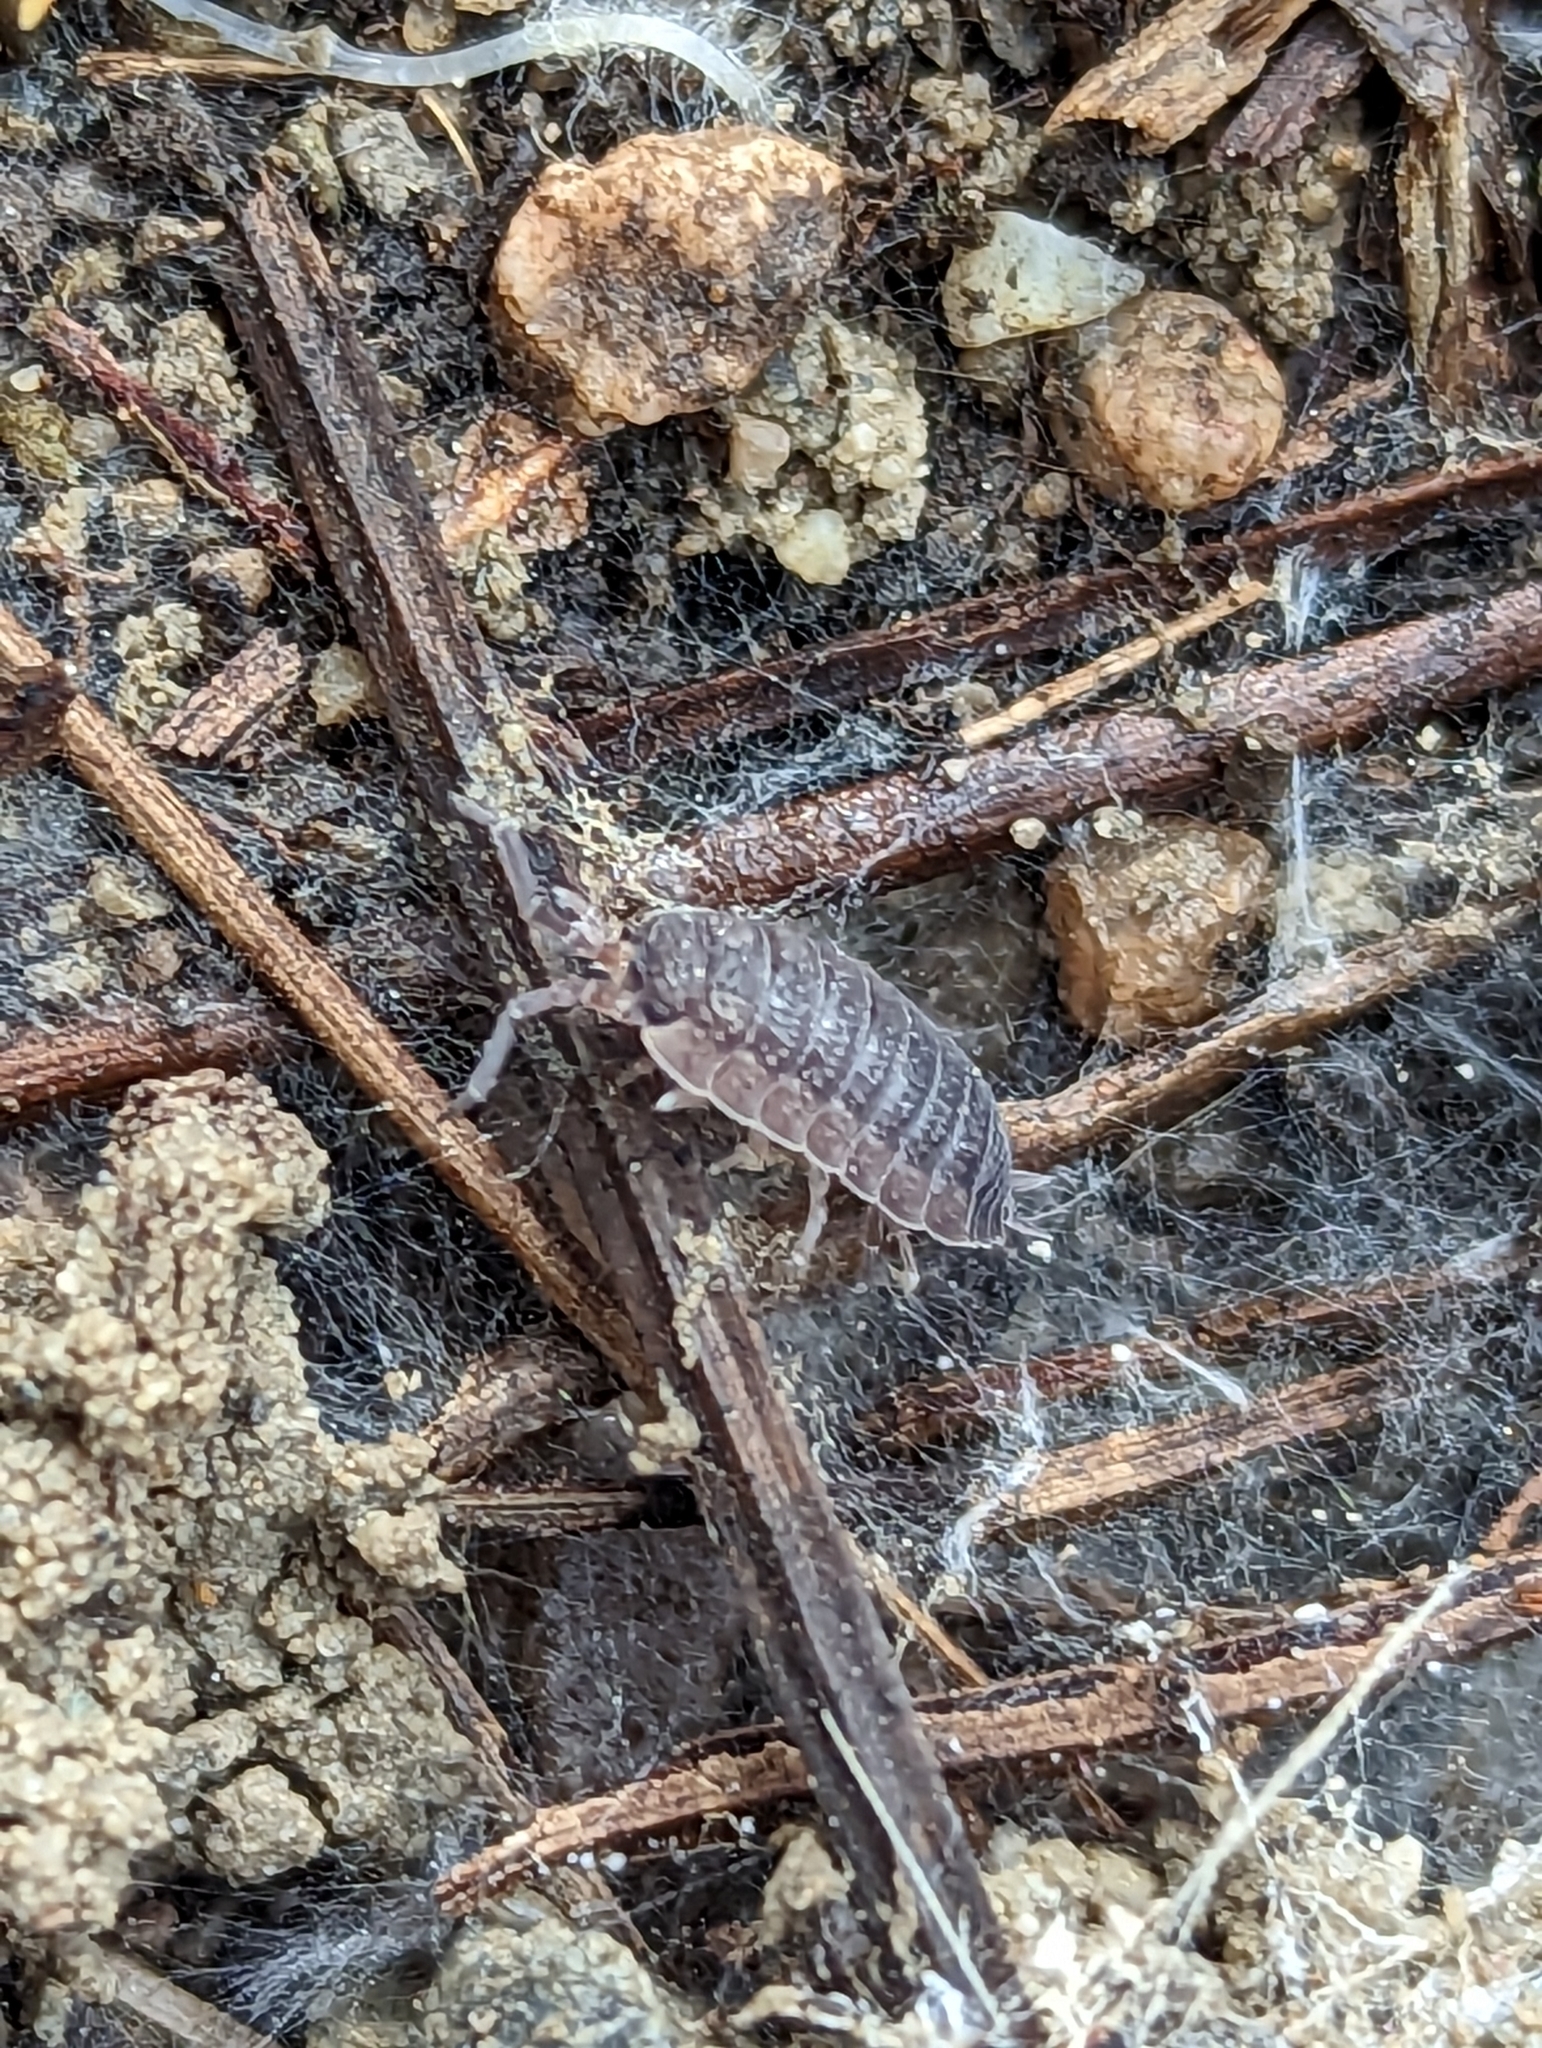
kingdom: Animalia
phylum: Arthropoda
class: Malacostraca
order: Isopoda
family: Porcellionidae
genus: Porcellio
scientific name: Porcellio scaber
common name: Common rough woodlouse
